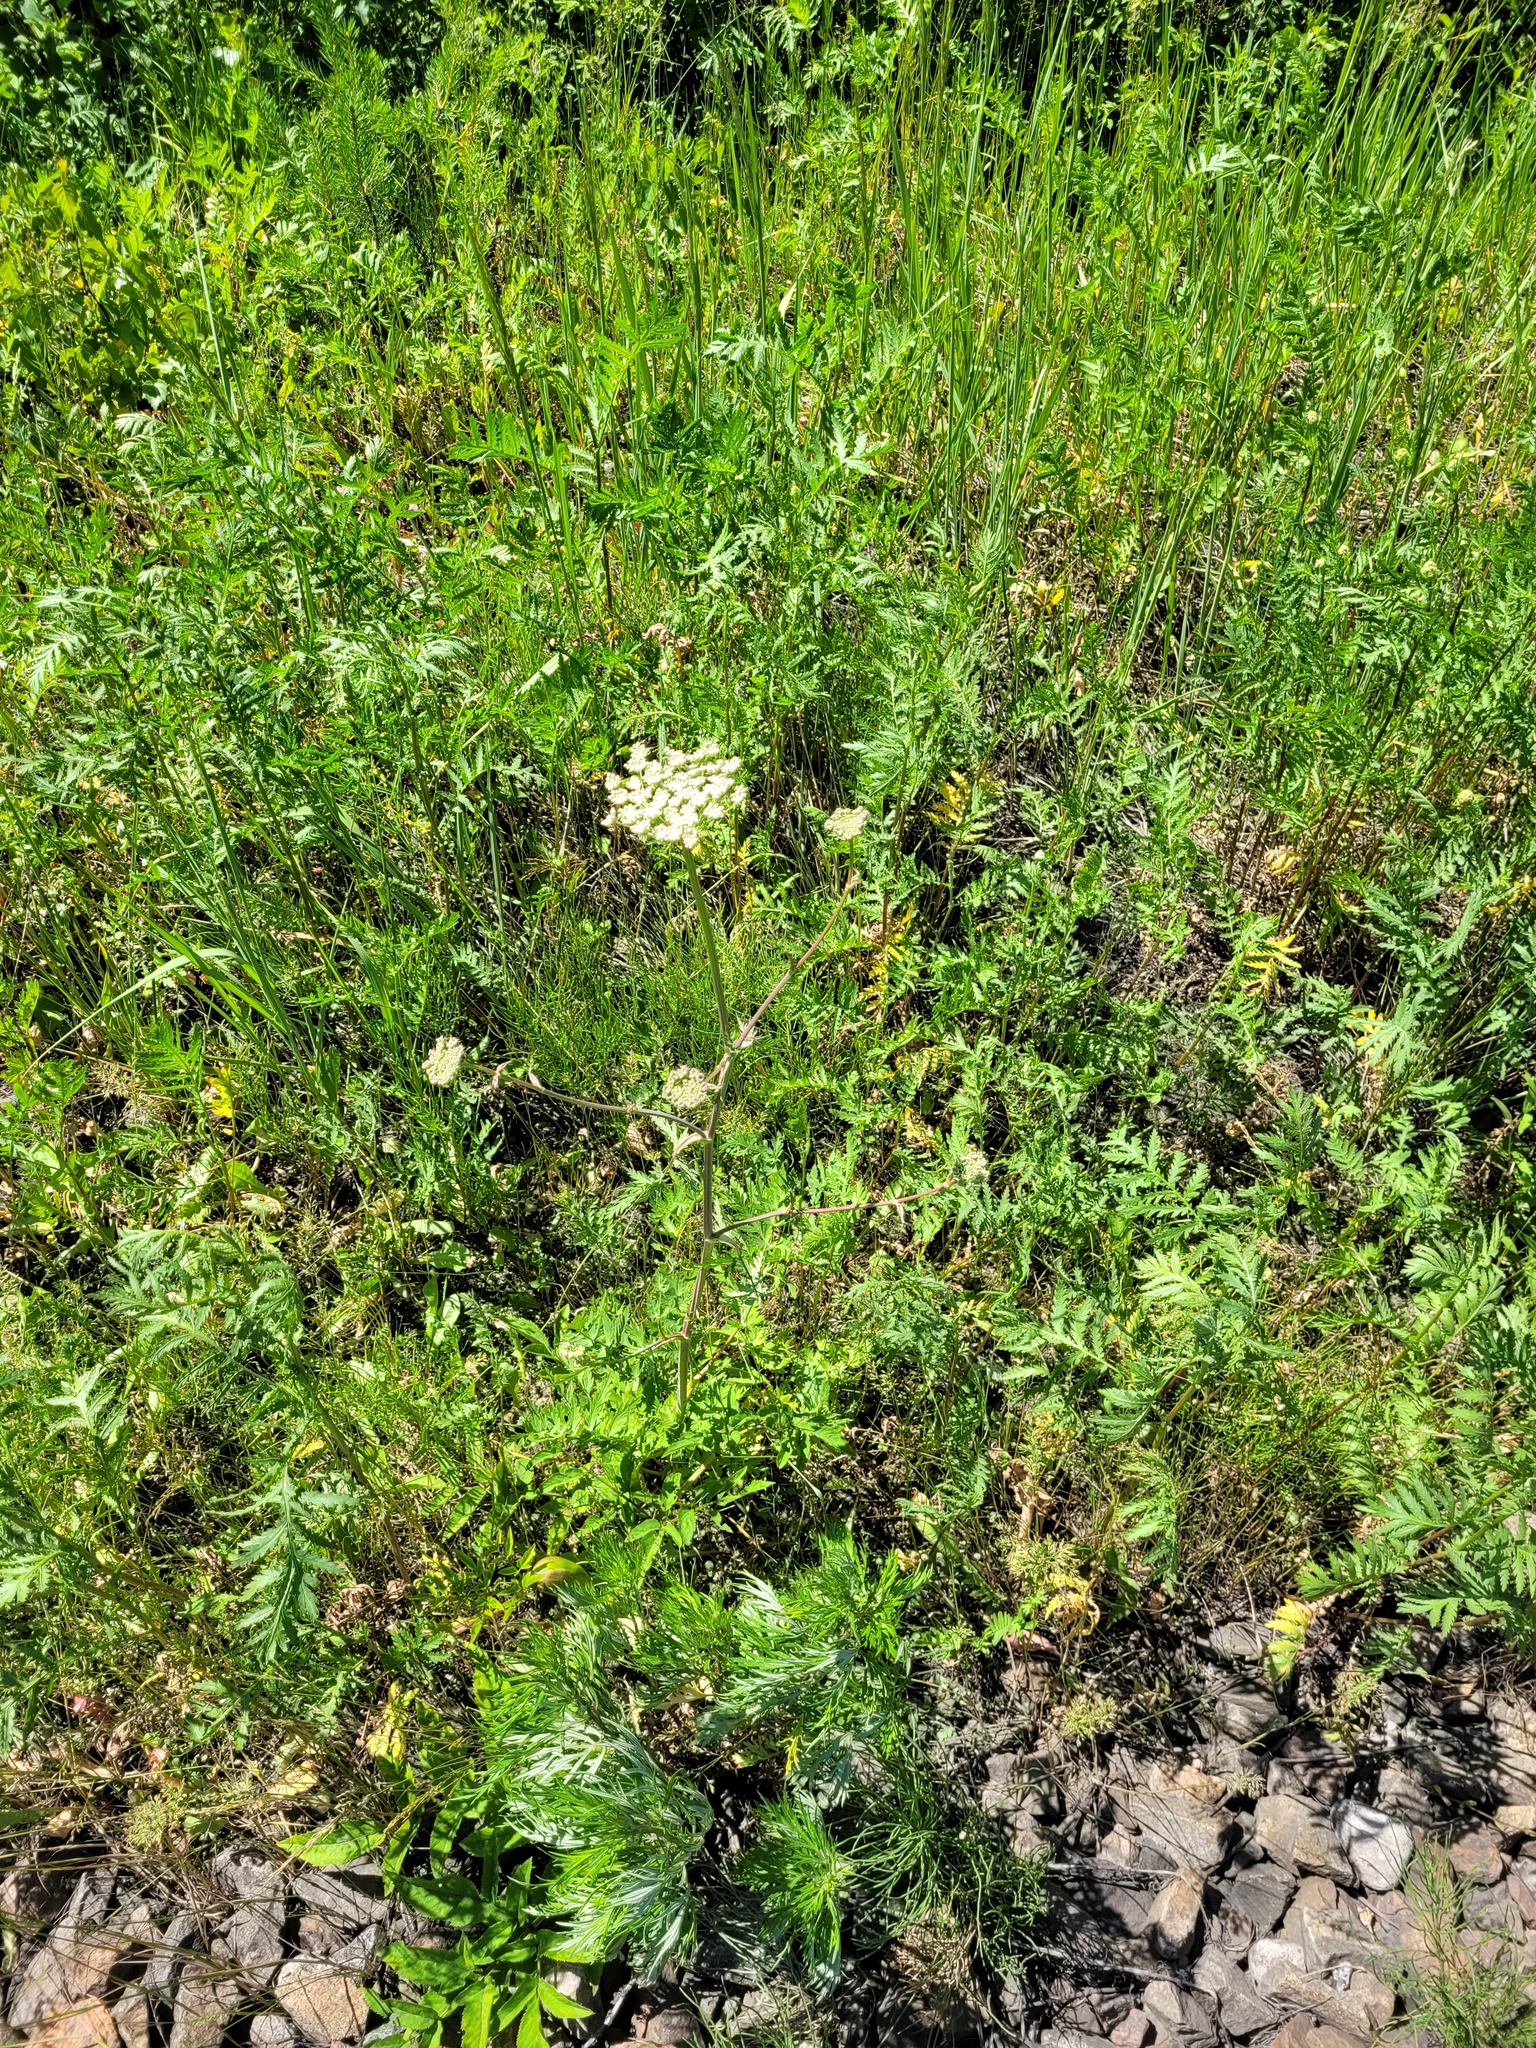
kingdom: Plantae
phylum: Tracheophyta
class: Magnoliopsida
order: Apiales
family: Apiaceae
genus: Seseli
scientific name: Seseli libanotis
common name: Mooncarrot
